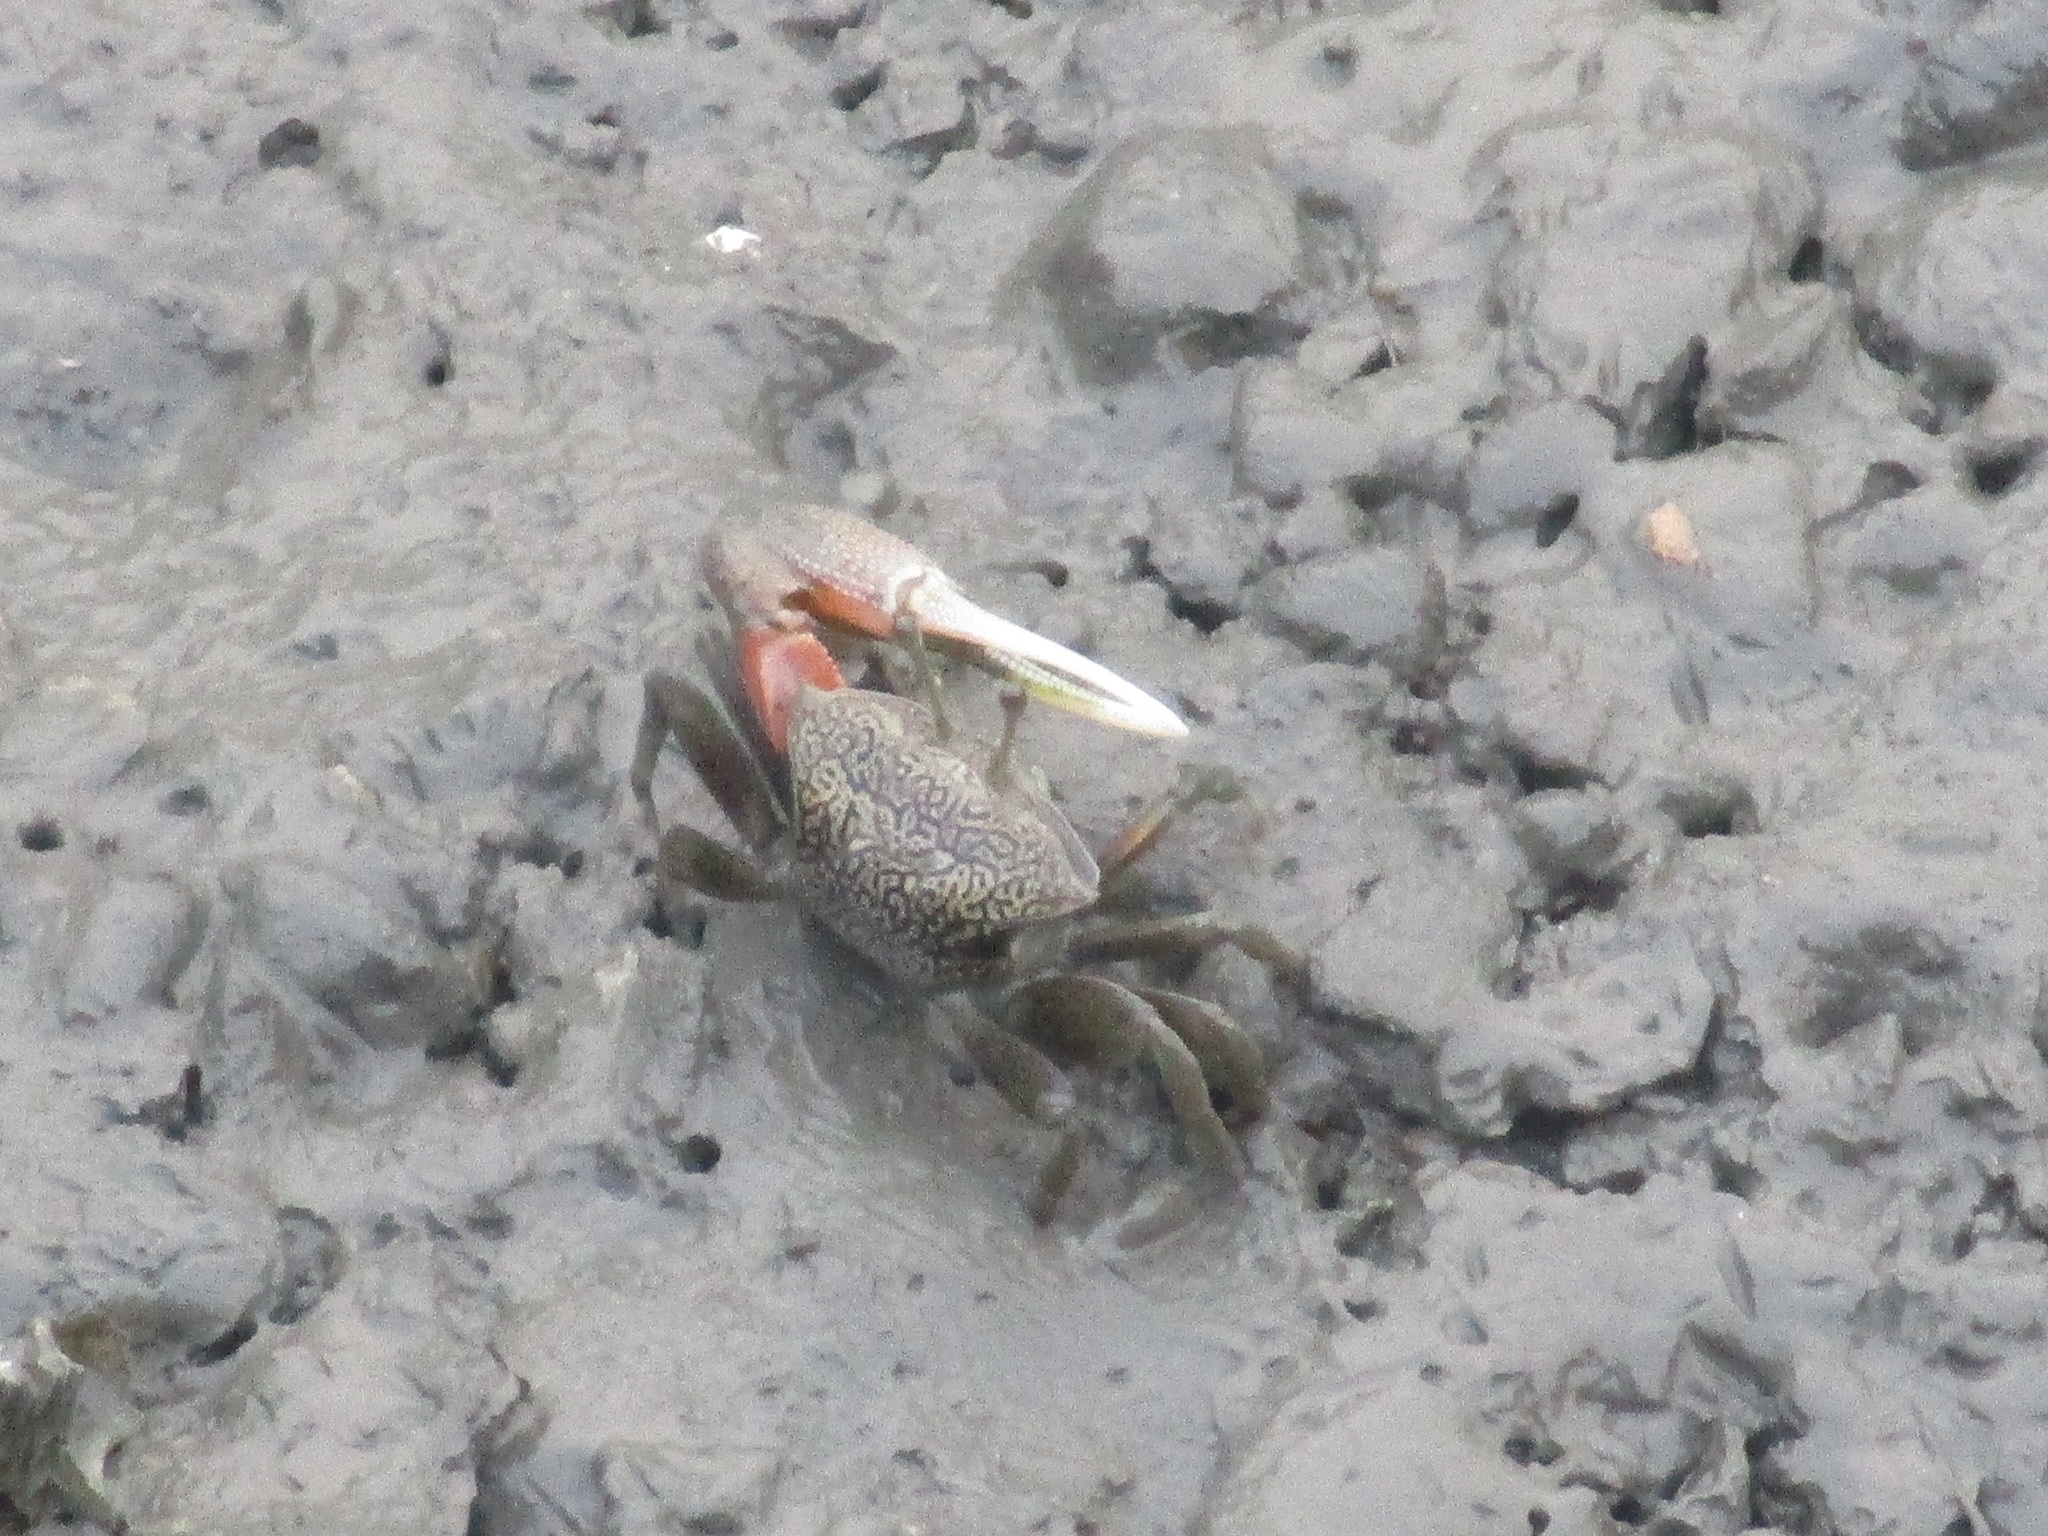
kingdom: Animalia
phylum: Arthropoda
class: Malacostraca
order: Decapoda
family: Ocypodidae
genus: Tubuca
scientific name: Tubuca arcuata
